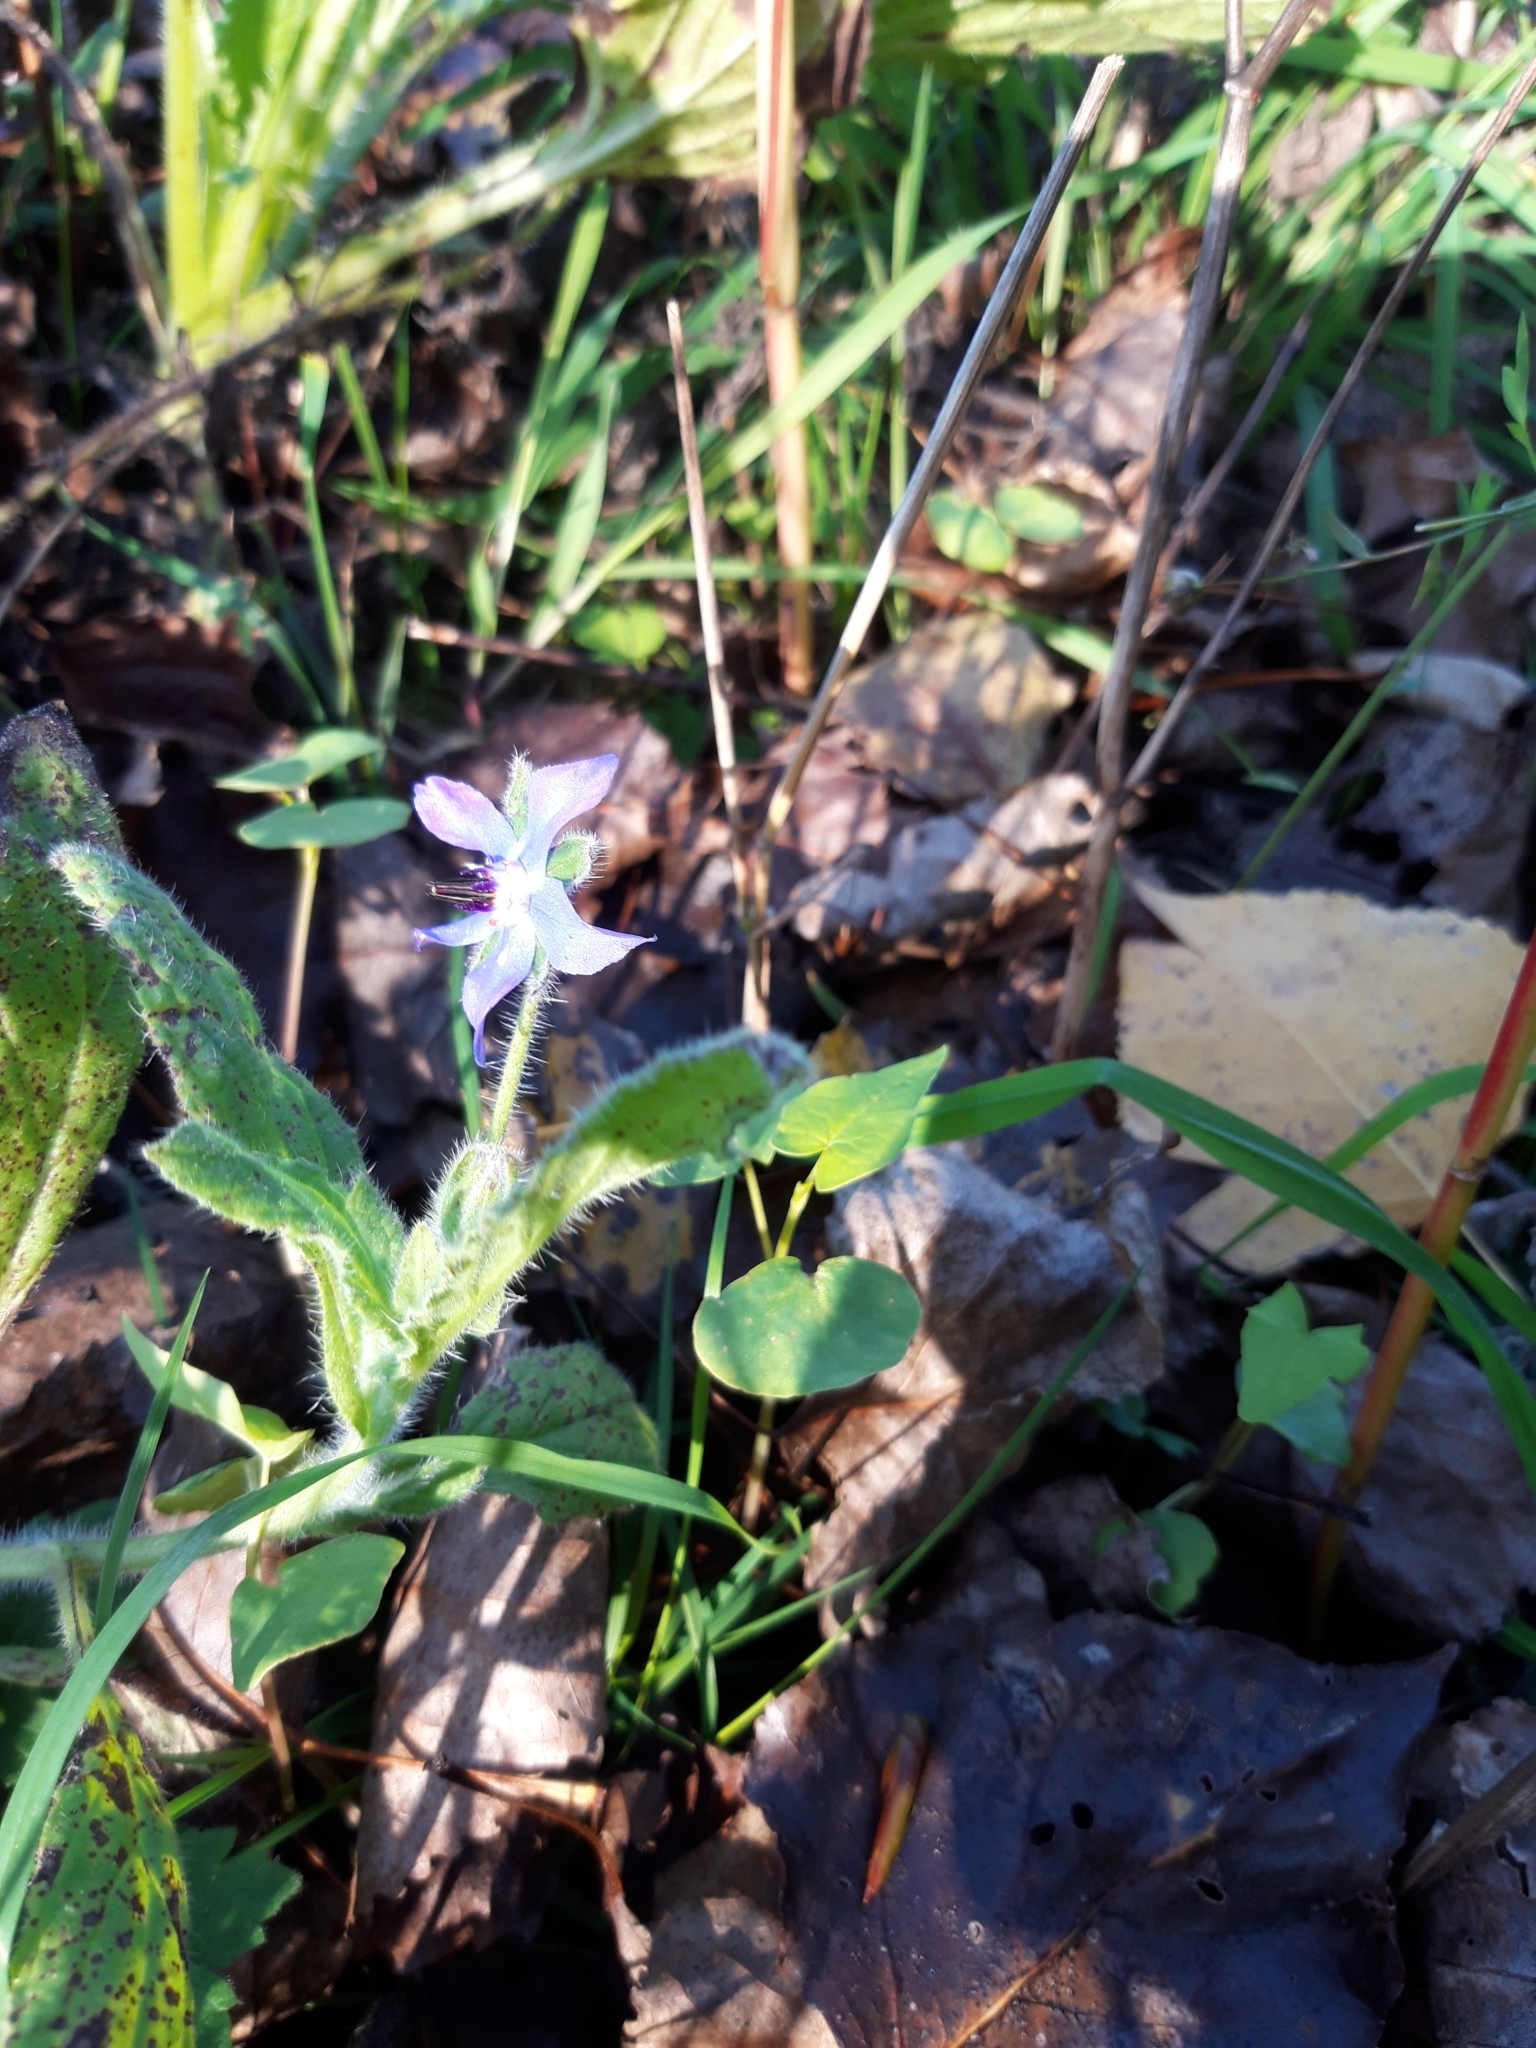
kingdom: Plantae
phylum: Tracheophyta
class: Magnoliopsida
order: Boraginales
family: Boraginaceae
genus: Borago
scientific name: Borago officinalis
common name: Borage
